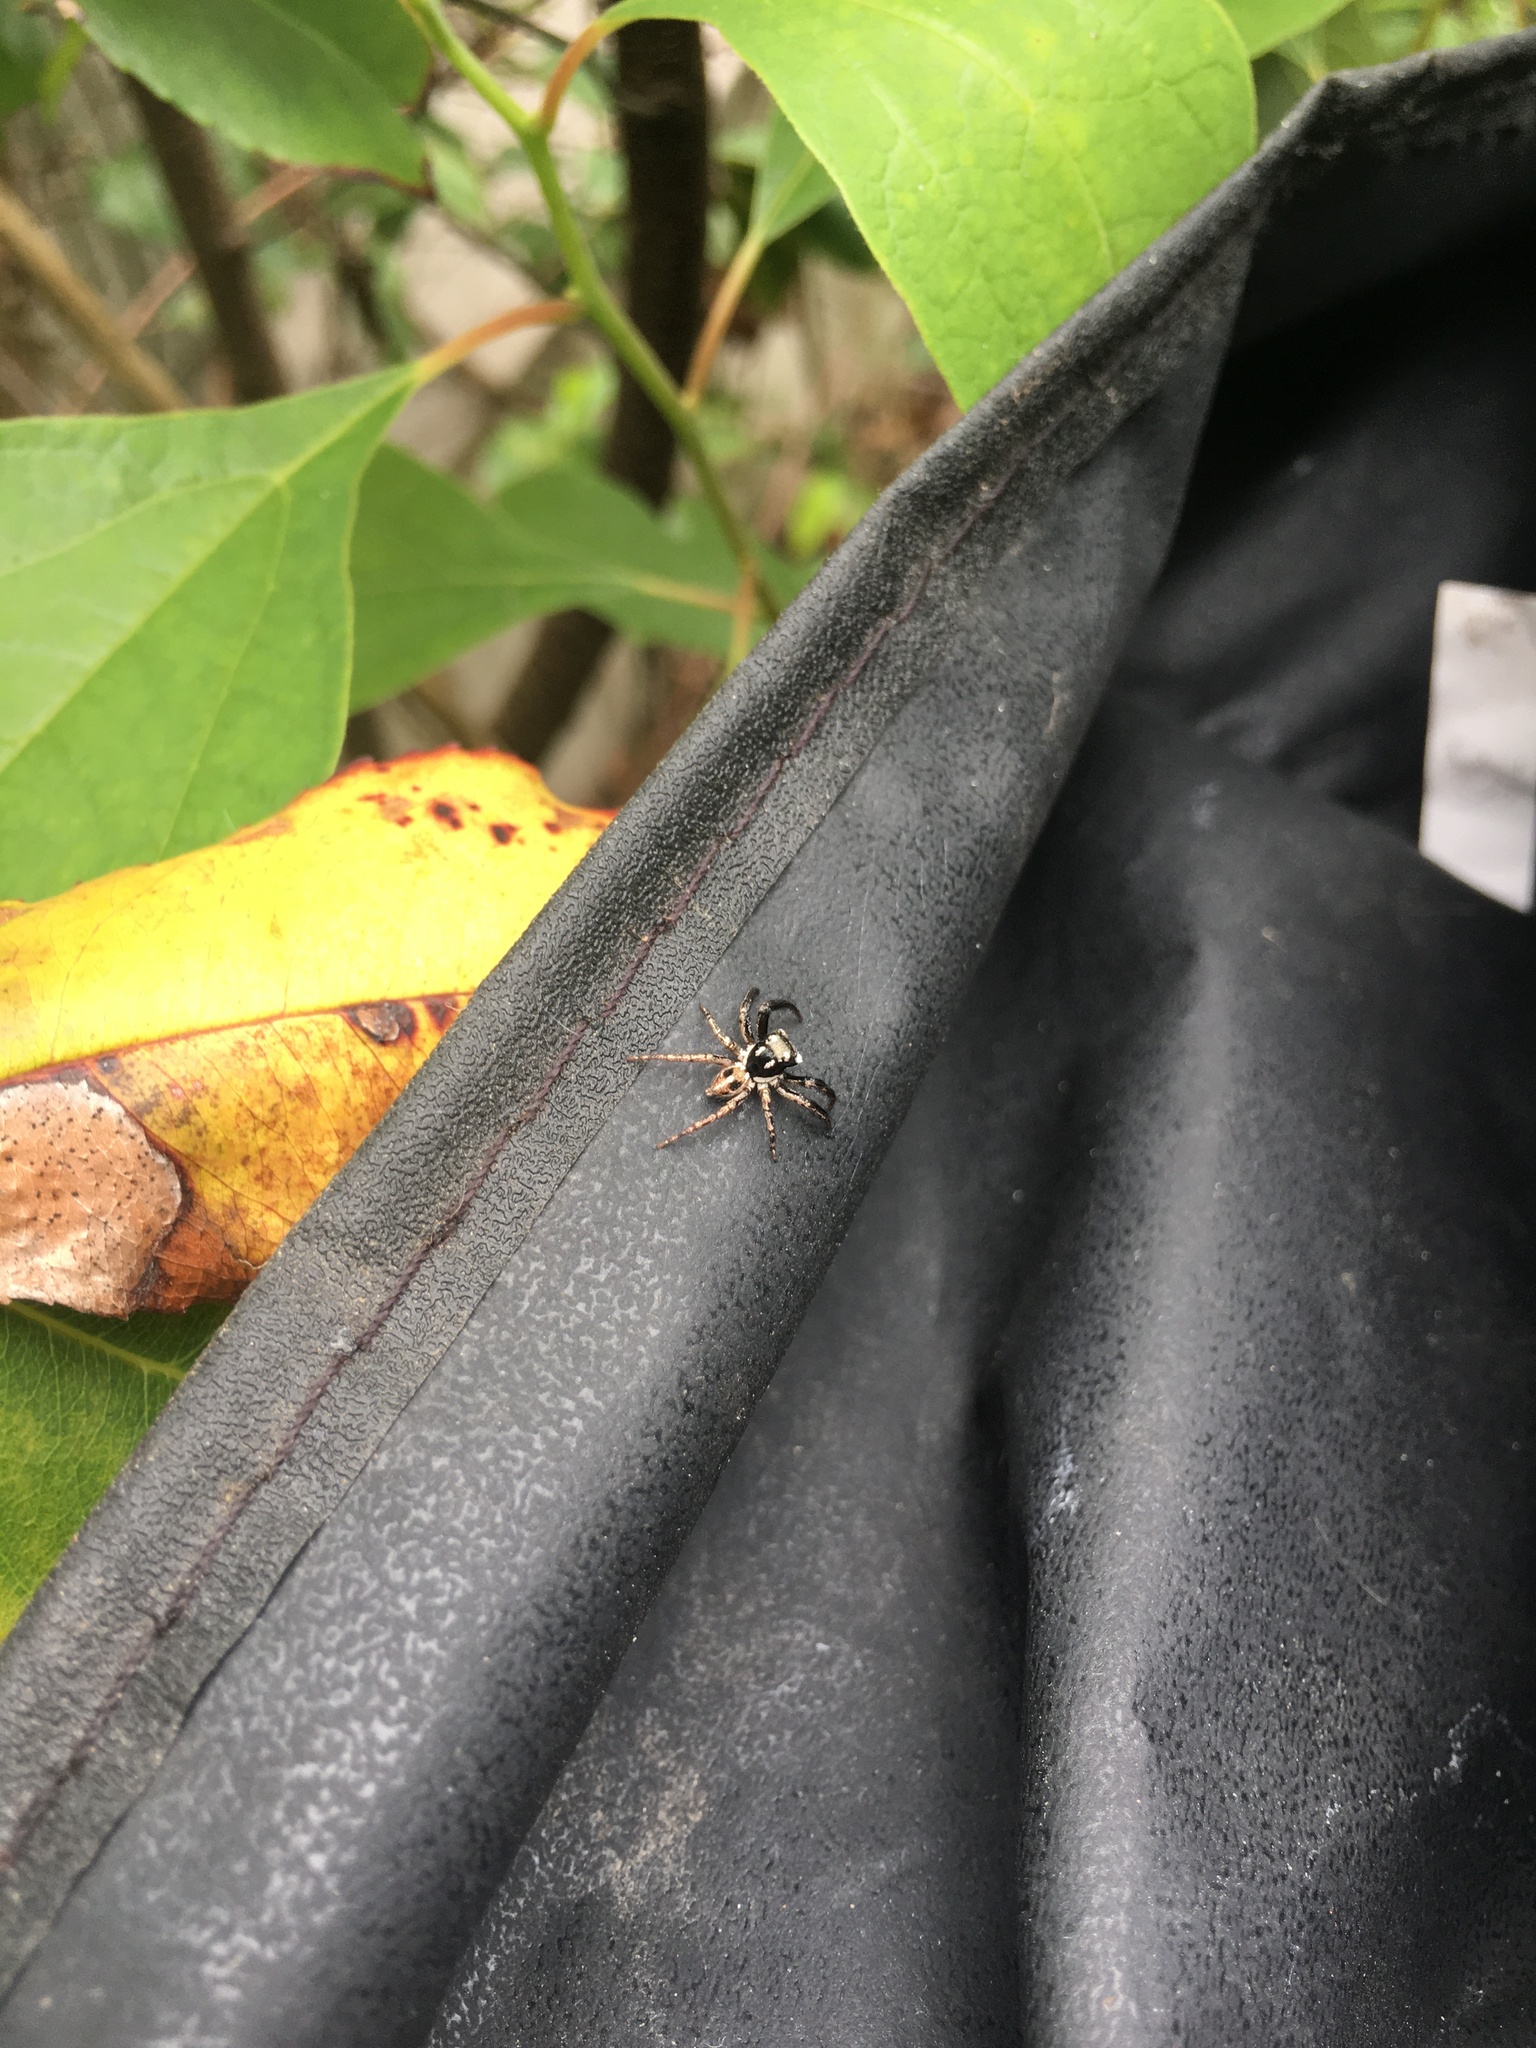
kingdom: Animalia
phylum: Arthropoda
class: Arachnida
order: Araneae
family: Salticidae
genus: Anasaitis
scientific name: Anasaitis canosa
